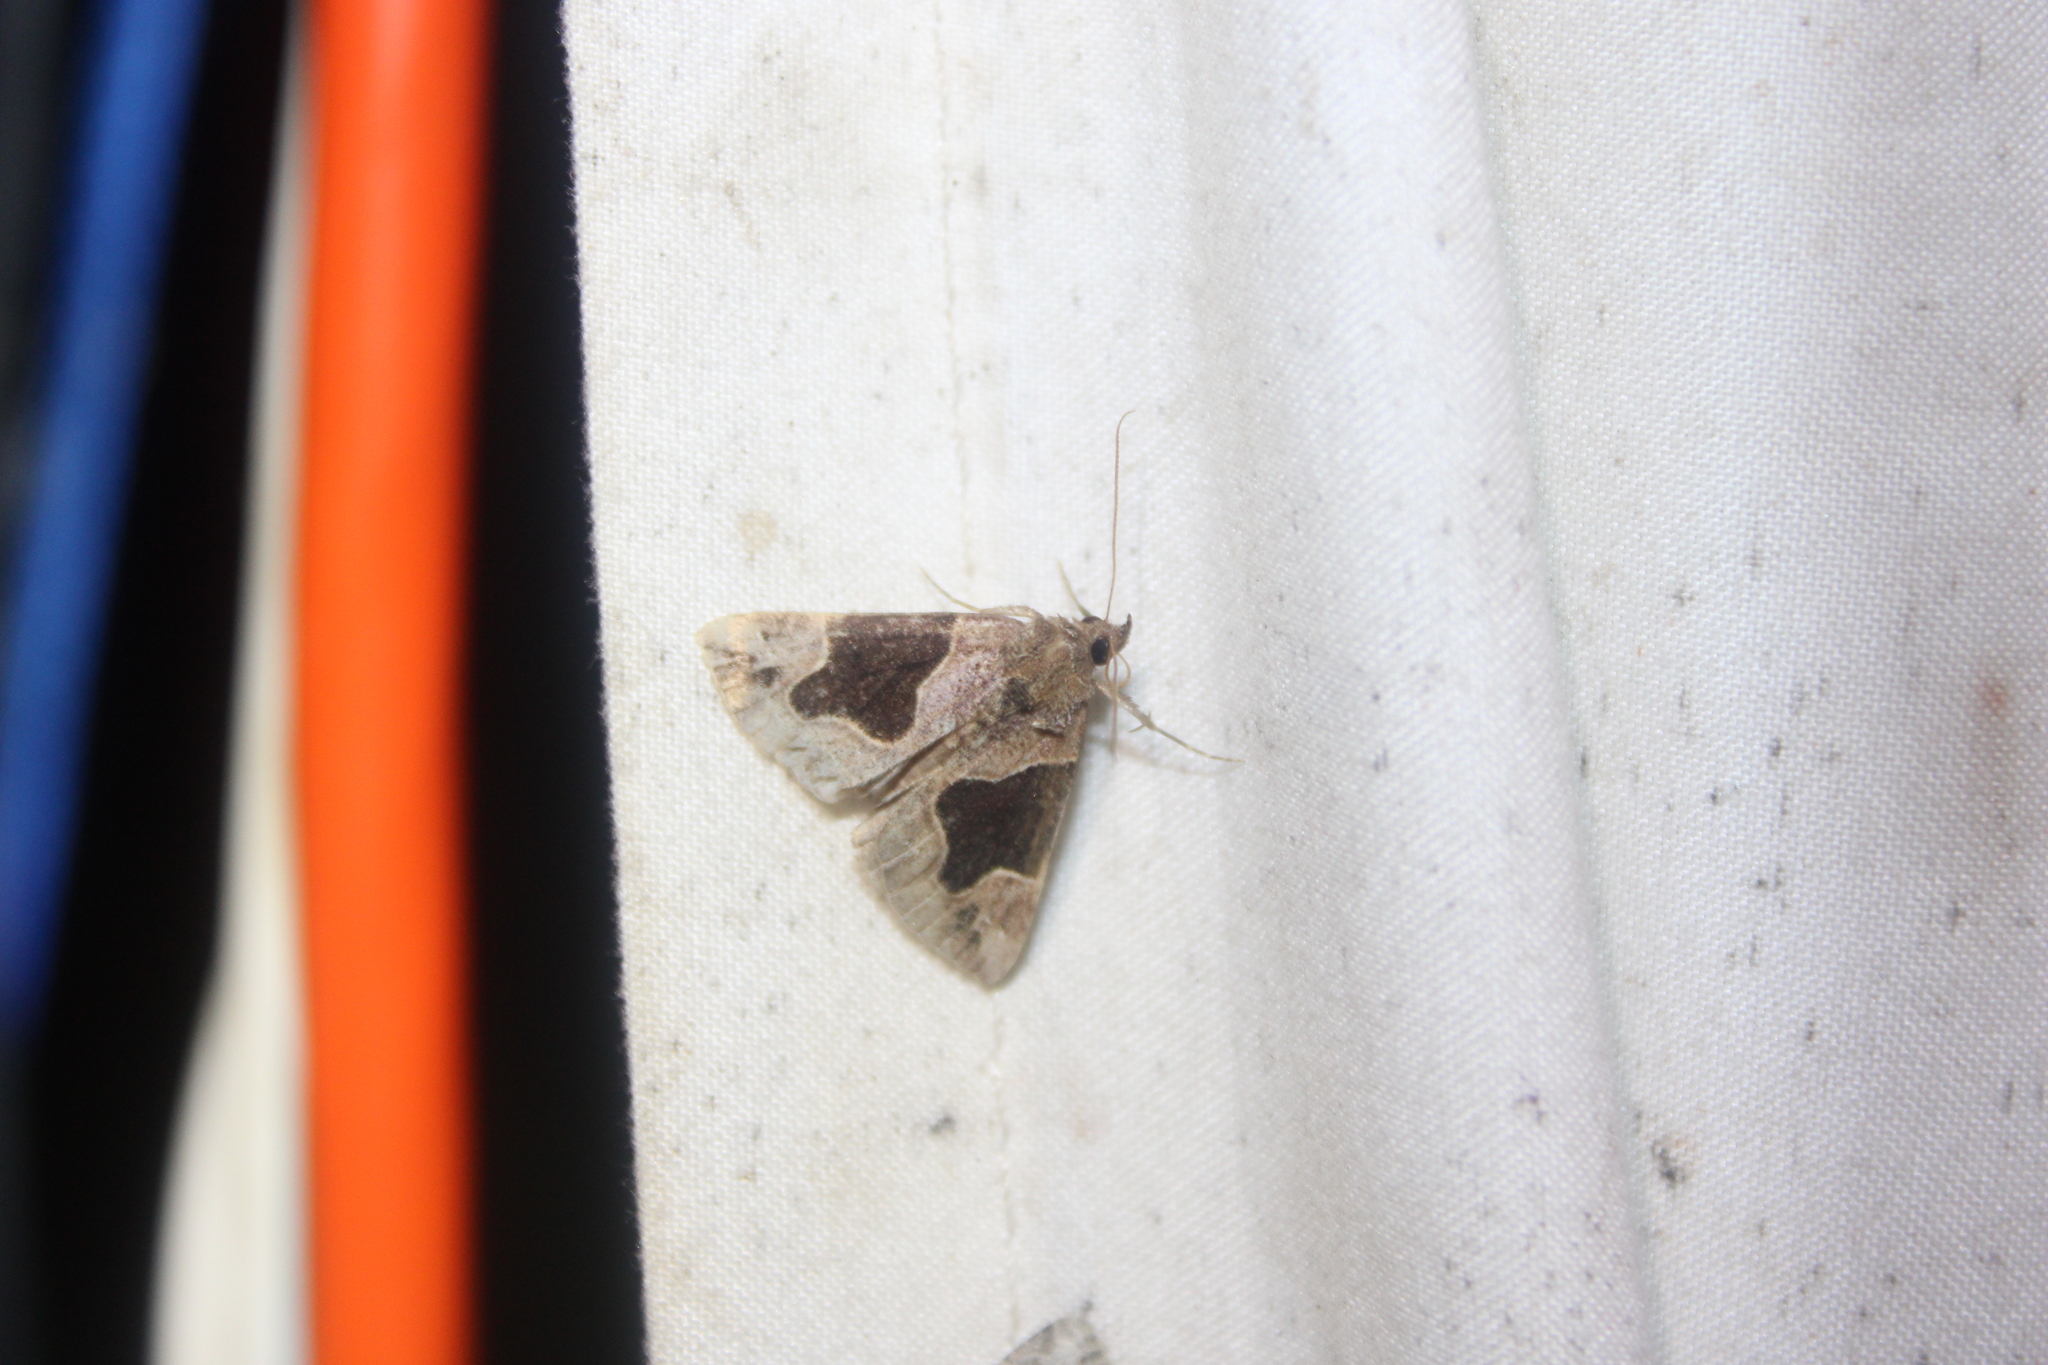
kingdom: Animalia
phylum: Arthropoda
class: Insecta
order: Lepidoptera
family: Erebidae
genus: Hypena
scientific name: Hypena manalis
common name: Flowing-line bomolocha moth
